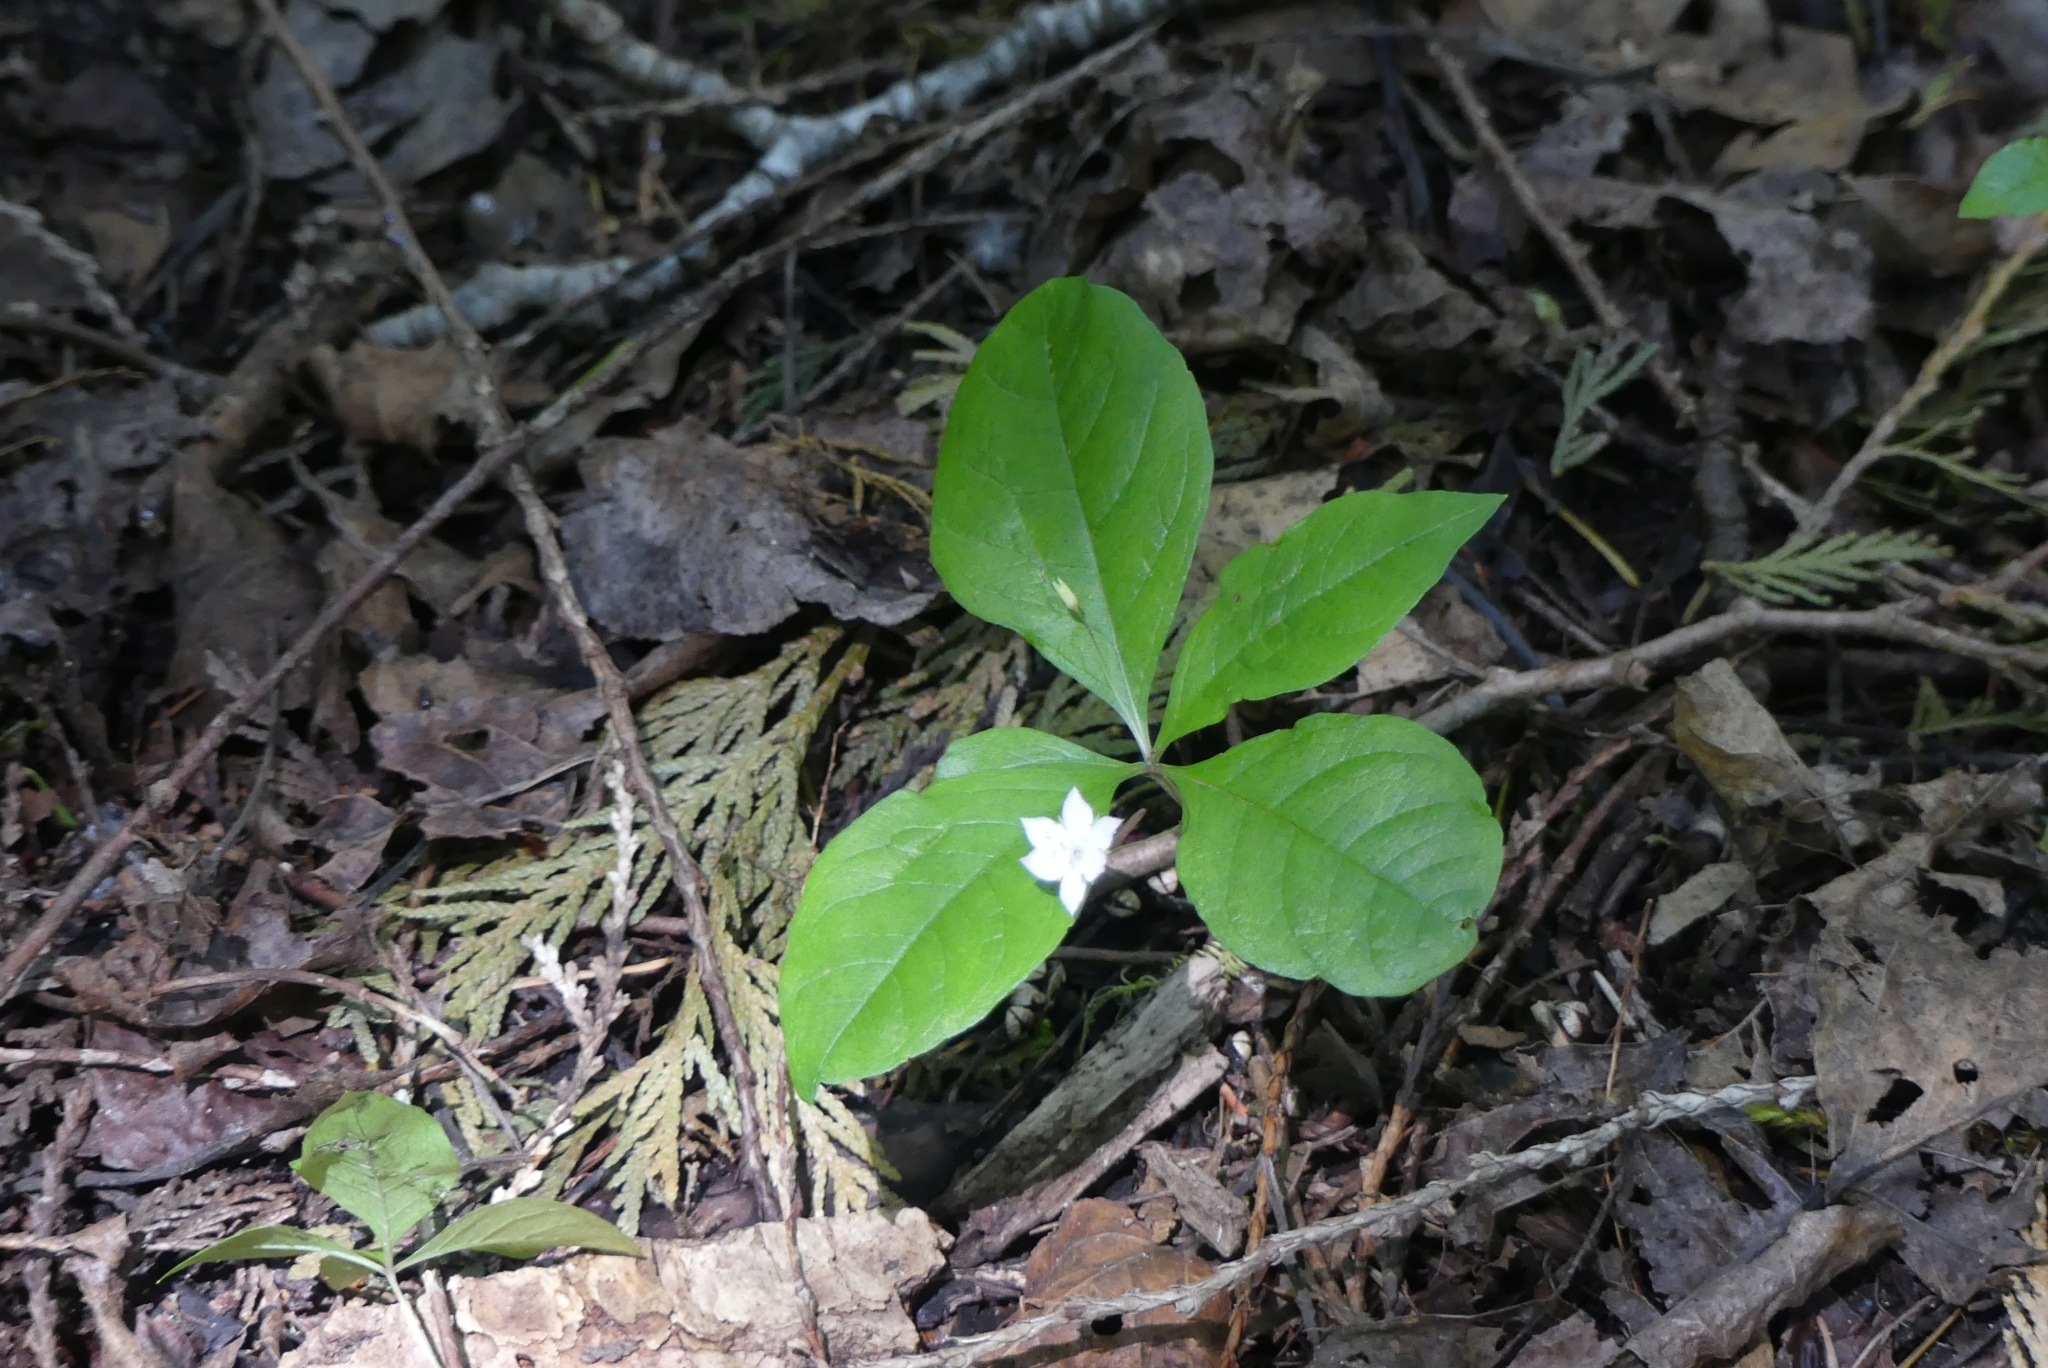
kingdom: Plantae
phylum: Tracheophyta
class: Magnoliopsida
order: Ericales
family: Primulaceae
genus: Lysimachia
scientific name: Lysimachia latifolia
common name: Pacific starflower
